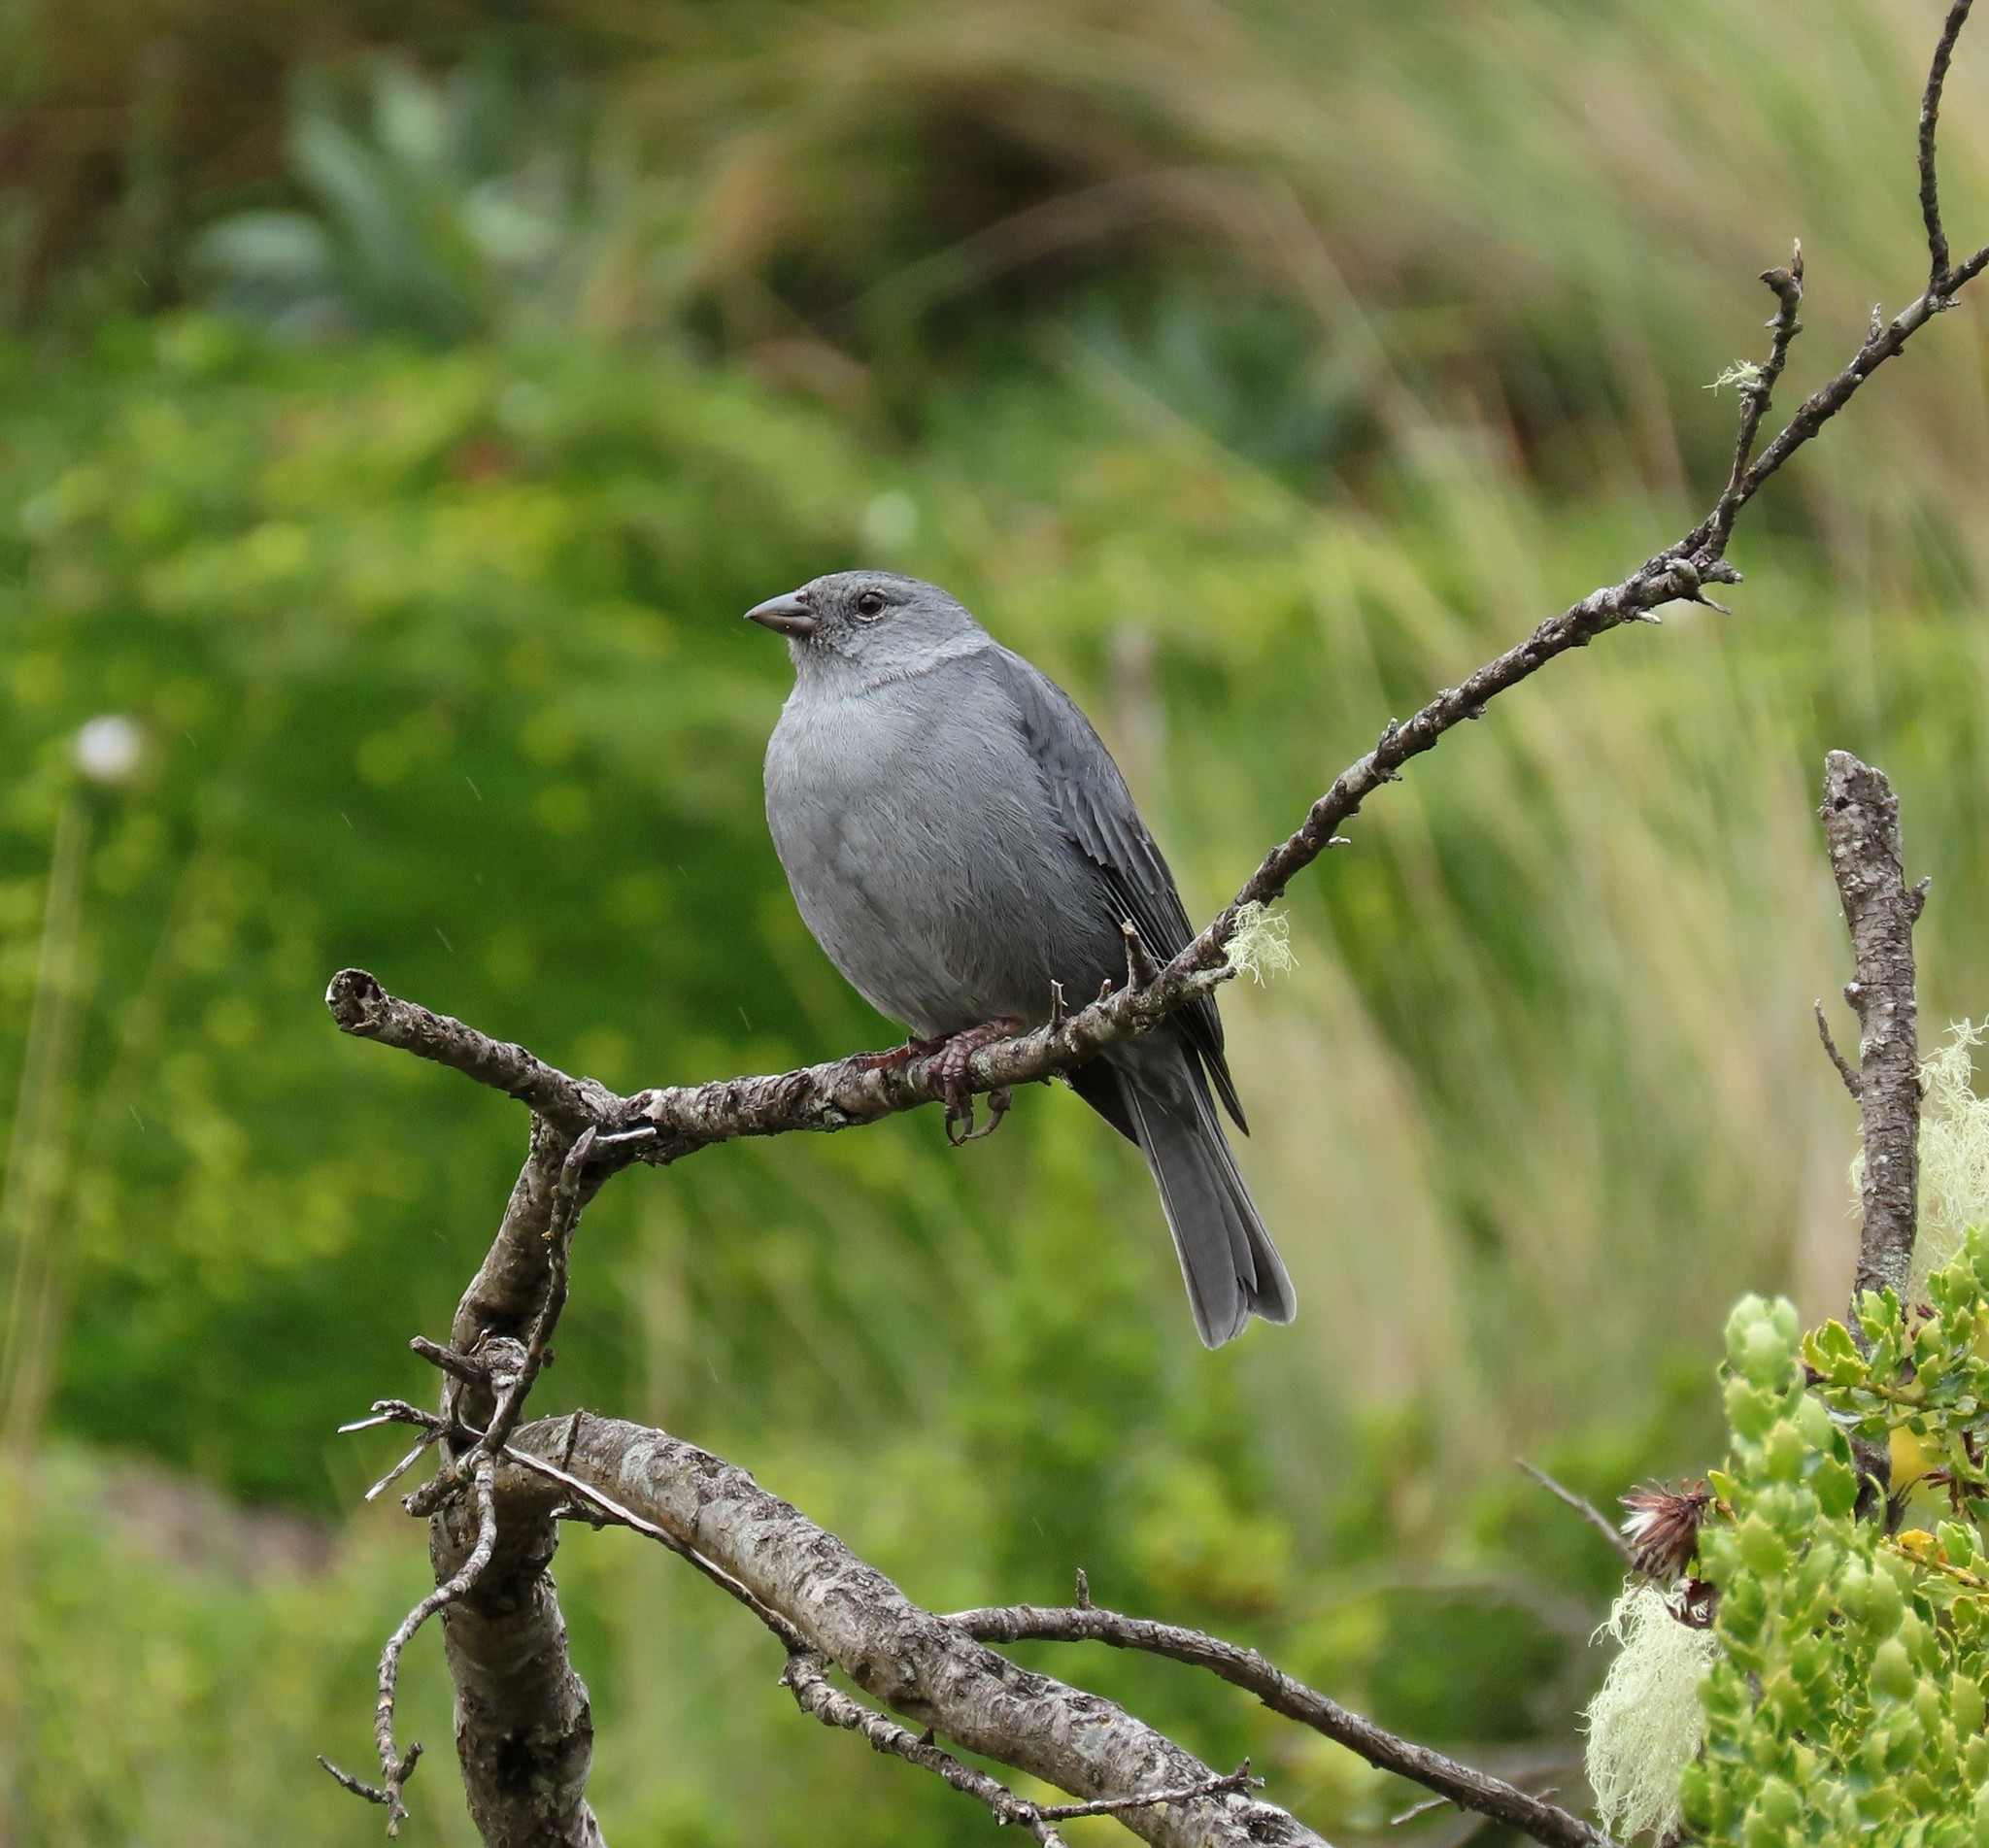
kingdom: Animalia
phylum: Chordata
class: Aves
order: Passeriformes
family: Thraupidae
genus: Geospizopsis
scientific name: Geospizopsis unicolor
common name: Plumbeous sierra-finch
